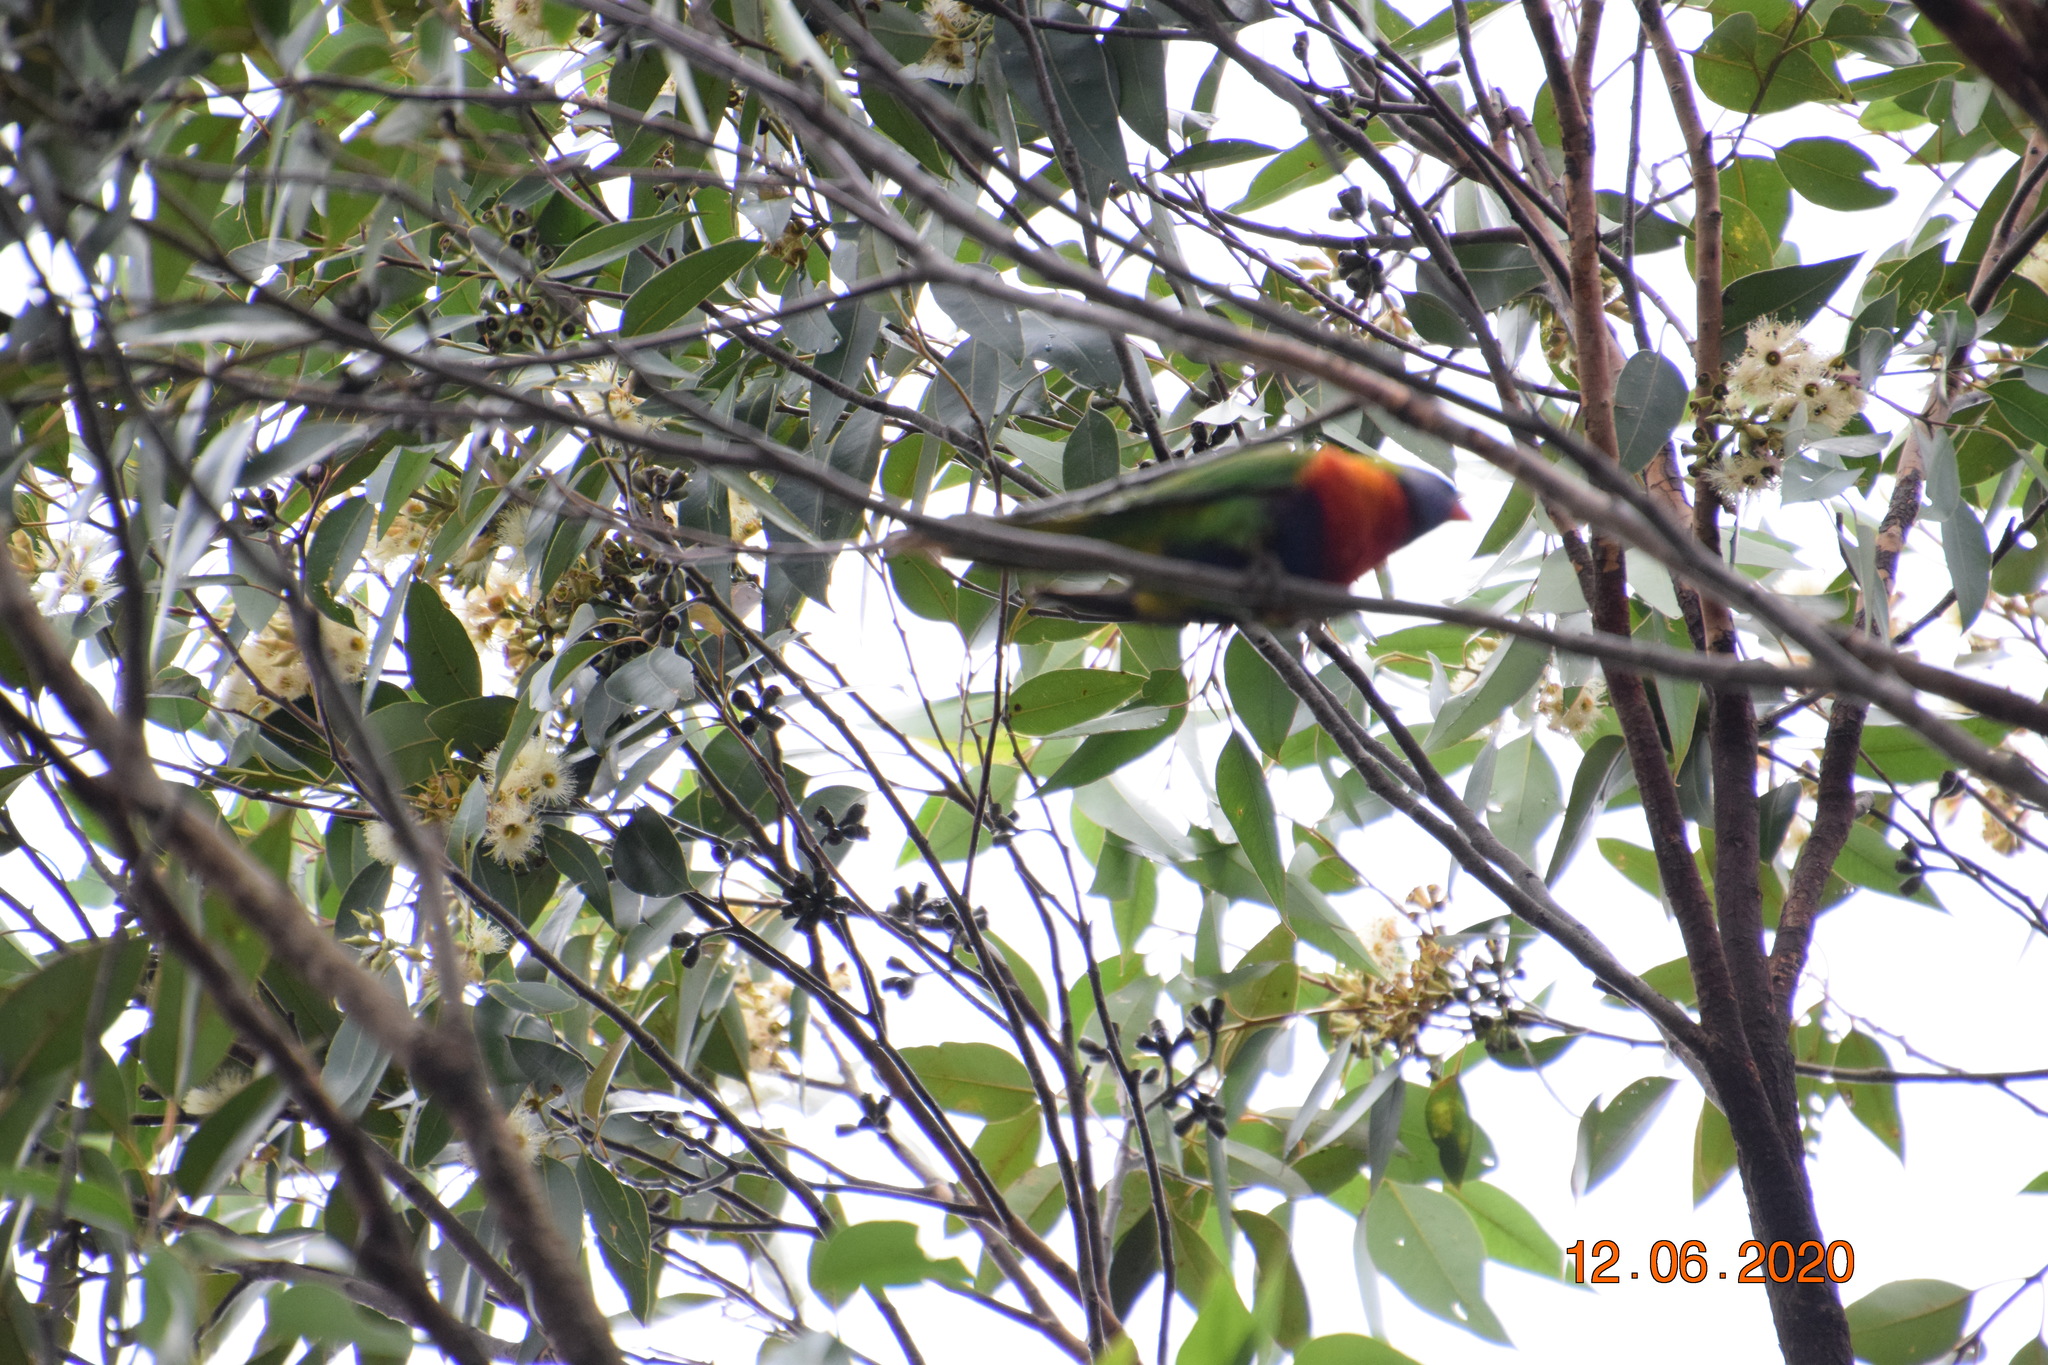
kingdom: Animalia
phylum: Chordata
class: Aves
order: Psittaciformes
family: Psittacidae
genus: Trichoglossus
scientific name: Trichoglossus haematodus
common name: Coconut lorikeet
